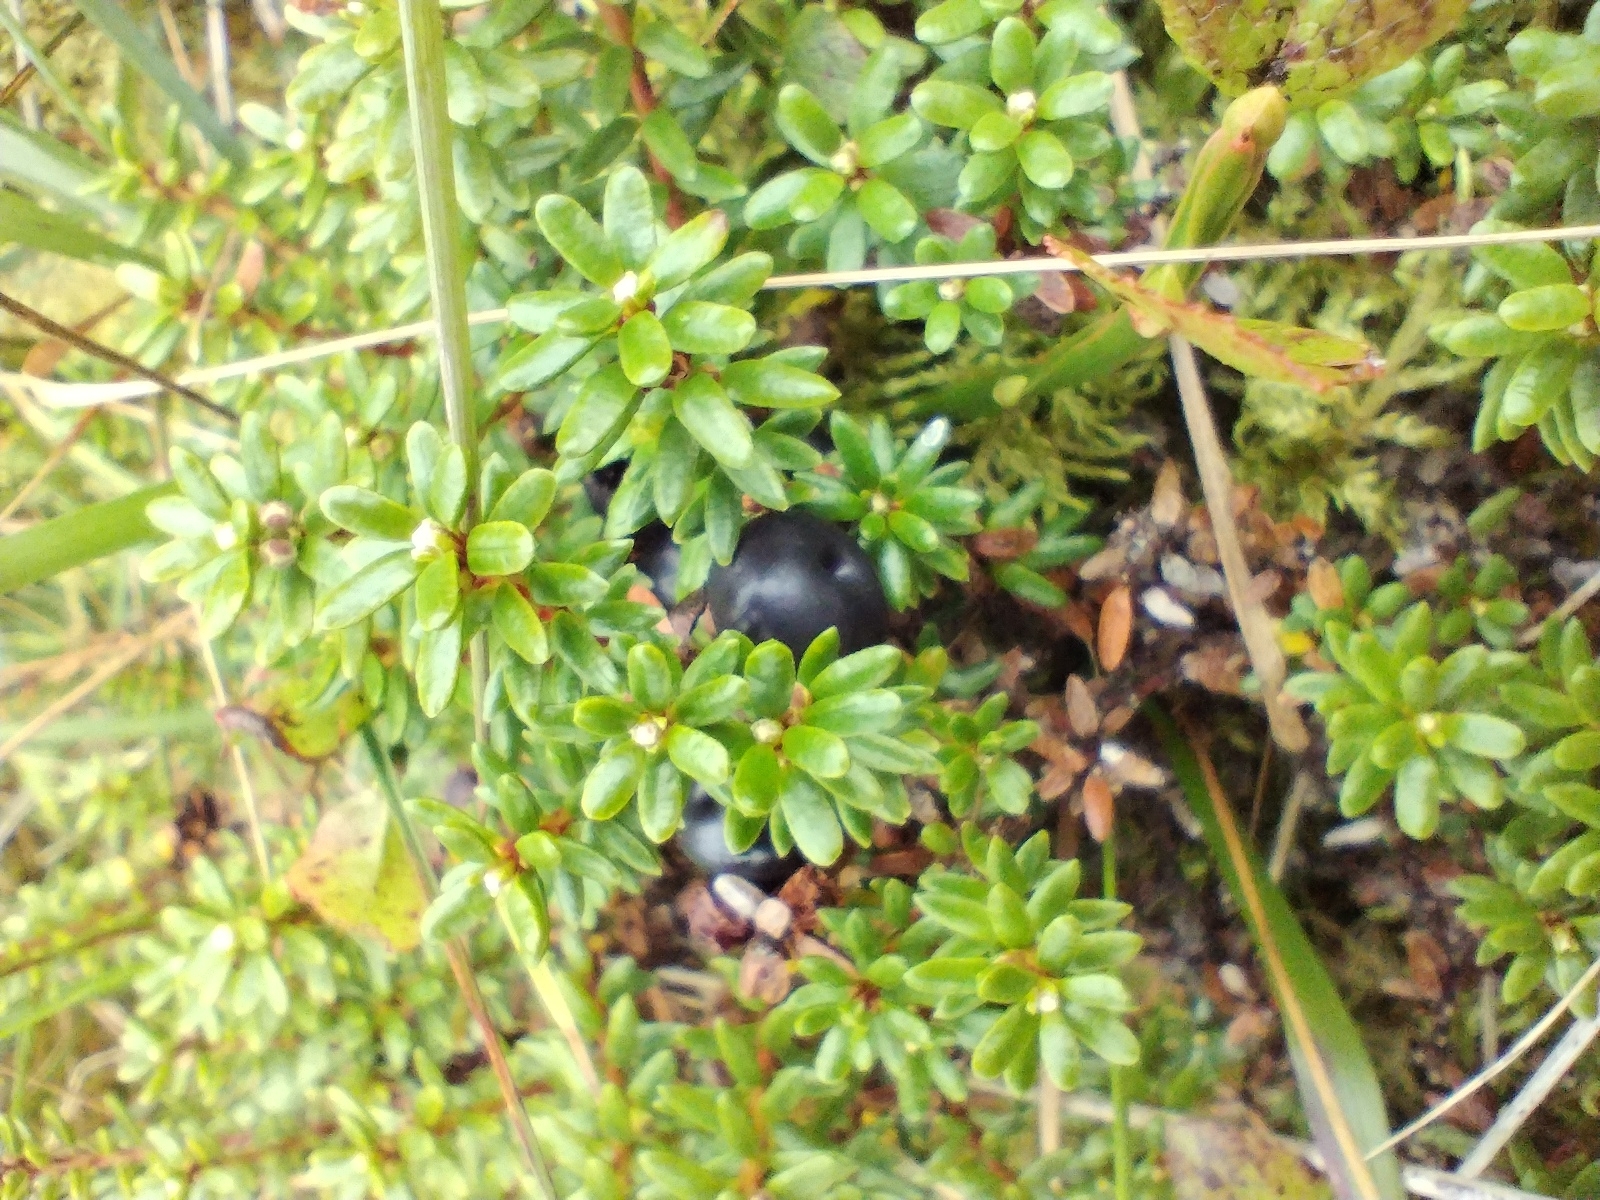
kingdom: Plantae
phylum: Tracheophyta
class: Magnoliopsida
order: Ericales
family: Ericaceae
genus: Empetrum
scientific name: Empetrum nigrum
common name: Black crowberry
